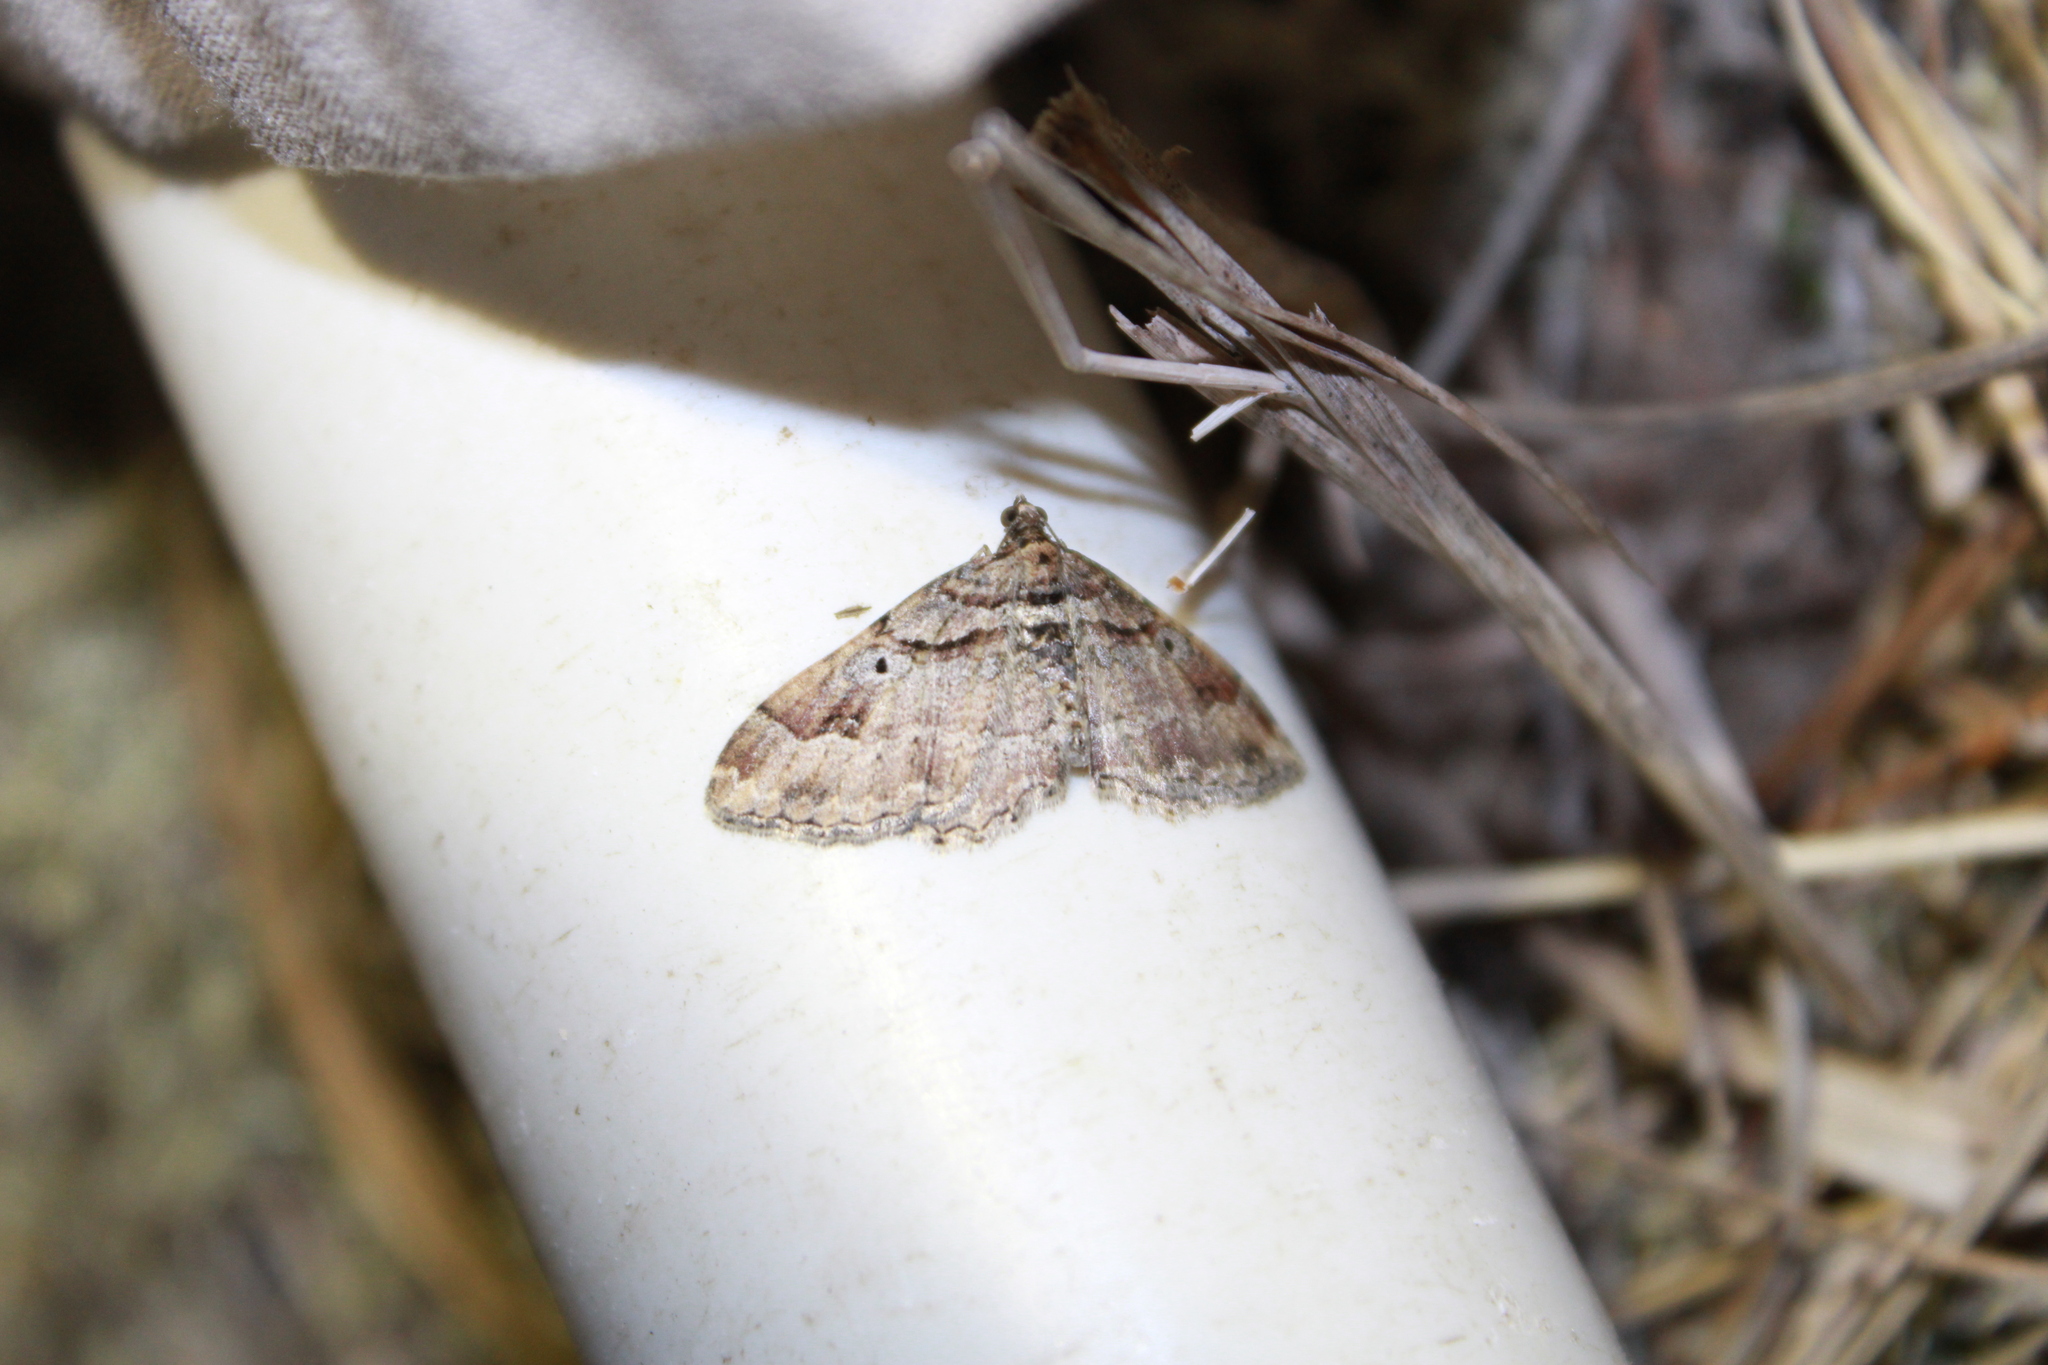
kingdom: Animalia
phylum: Arthropoda
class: Insecta
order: Lepidoptera
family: Geometridae
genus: Costaconvexa
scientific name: Costaconvexa centrostrigaria
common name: Bent-line carpet
